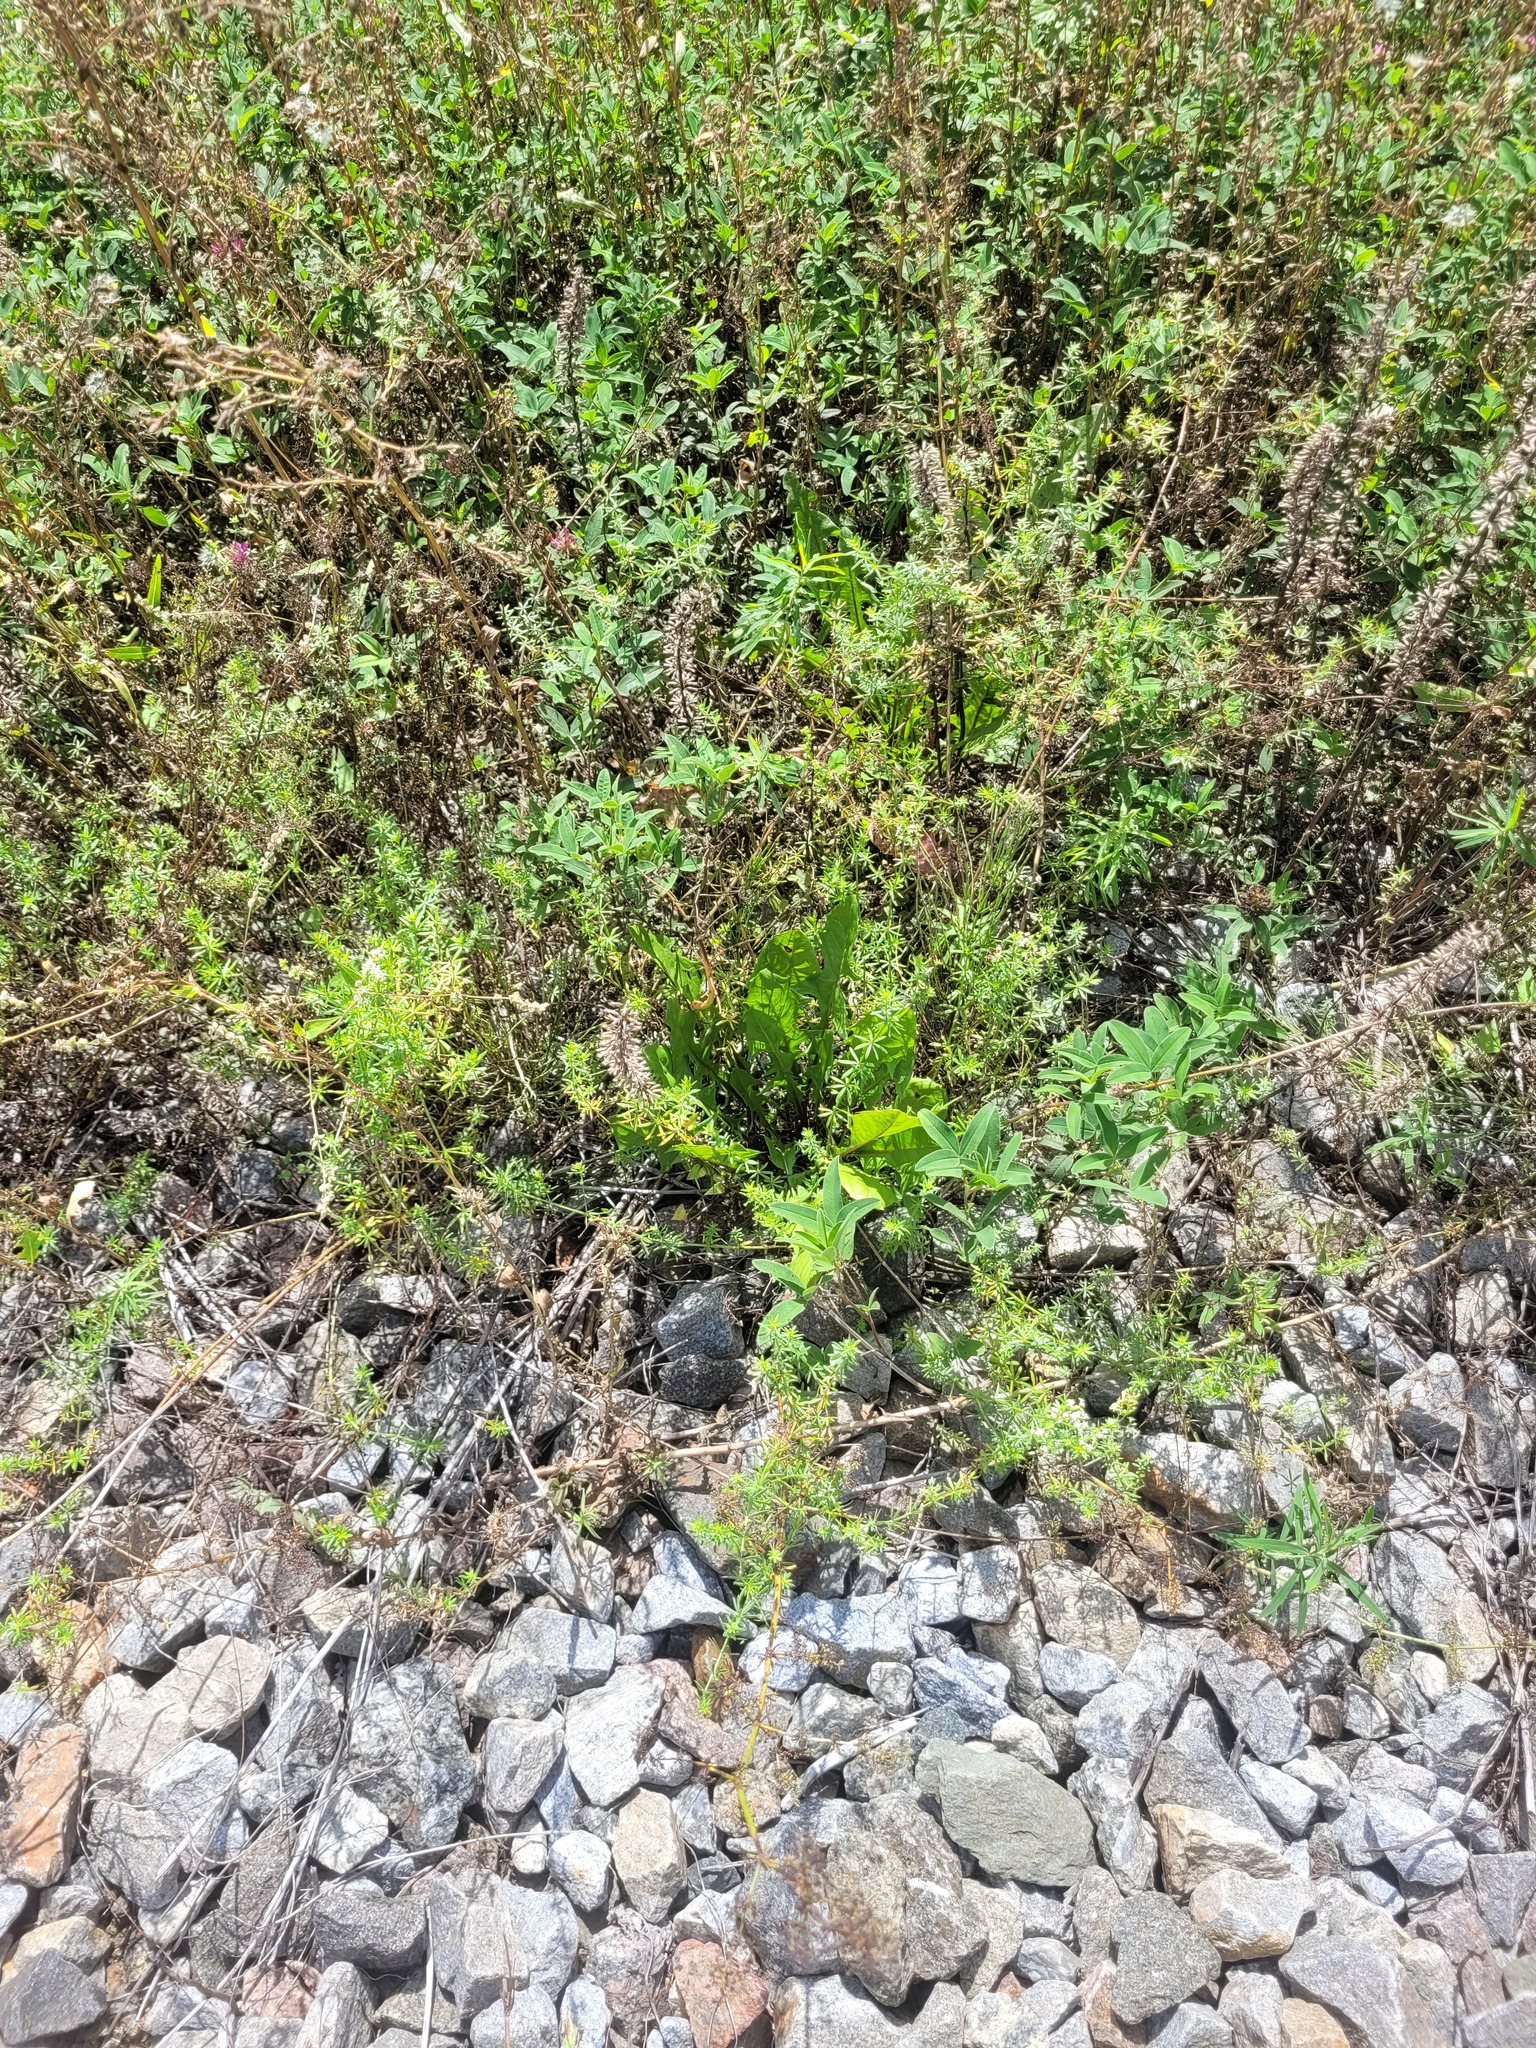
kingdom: Plantae
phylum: Tracheophyta
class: Magnoliopsida
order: Fabales
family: Fabaceae
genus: Trifolium
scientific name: Trifolium medium
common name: Zigzag clover
